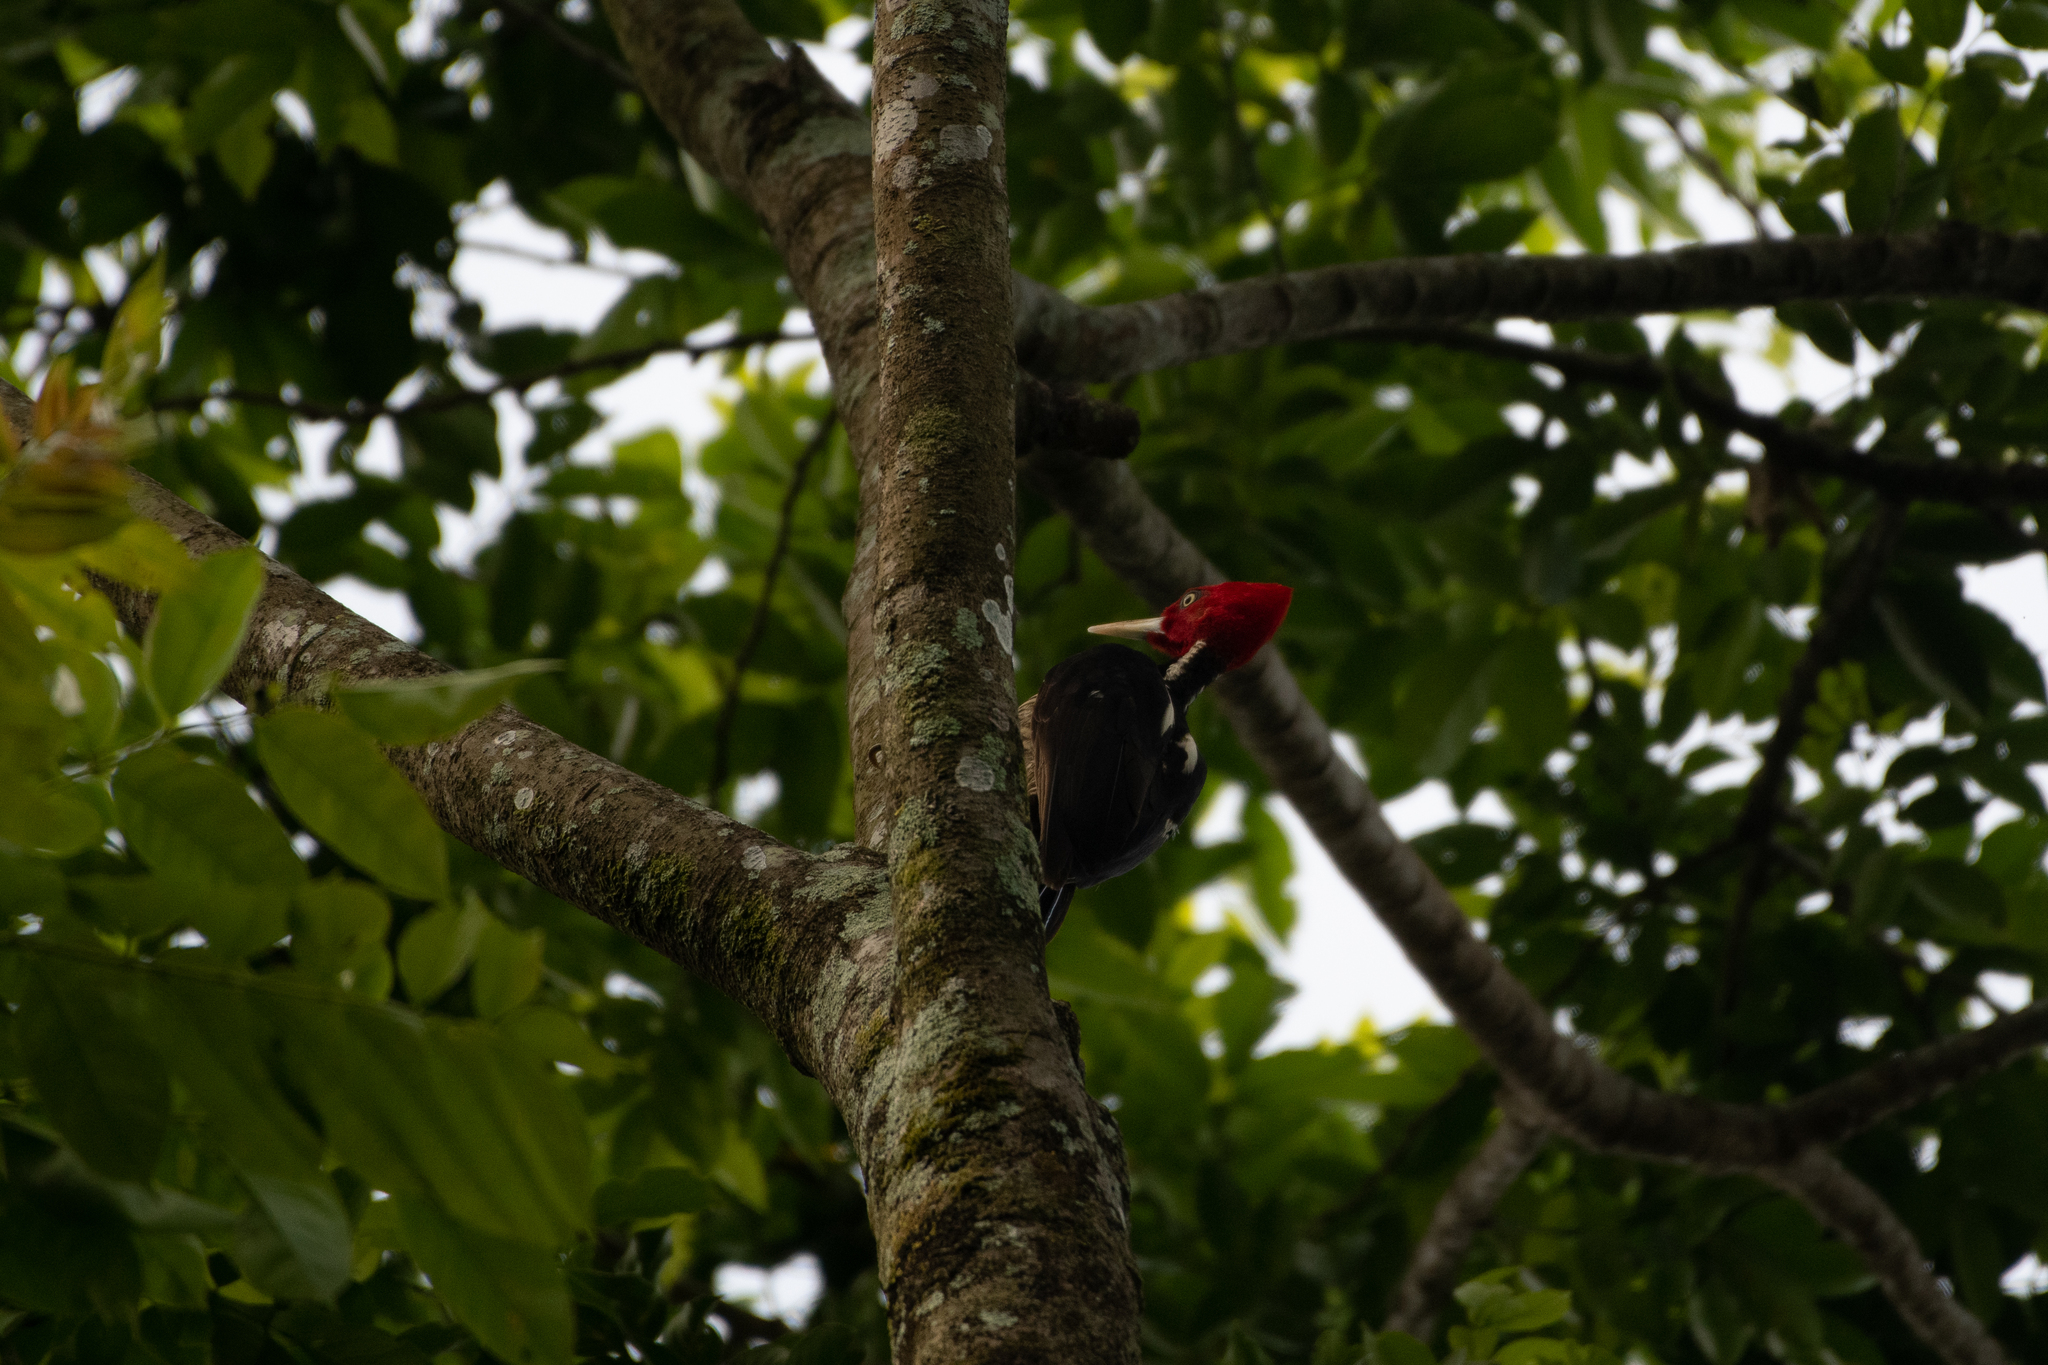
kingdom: Animalia
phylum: Chordata
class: Aves
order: Piciformes
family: Picidae
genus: Campephilus
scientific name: Campephilus guatemalensis
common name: Pale-billed woodpecker
